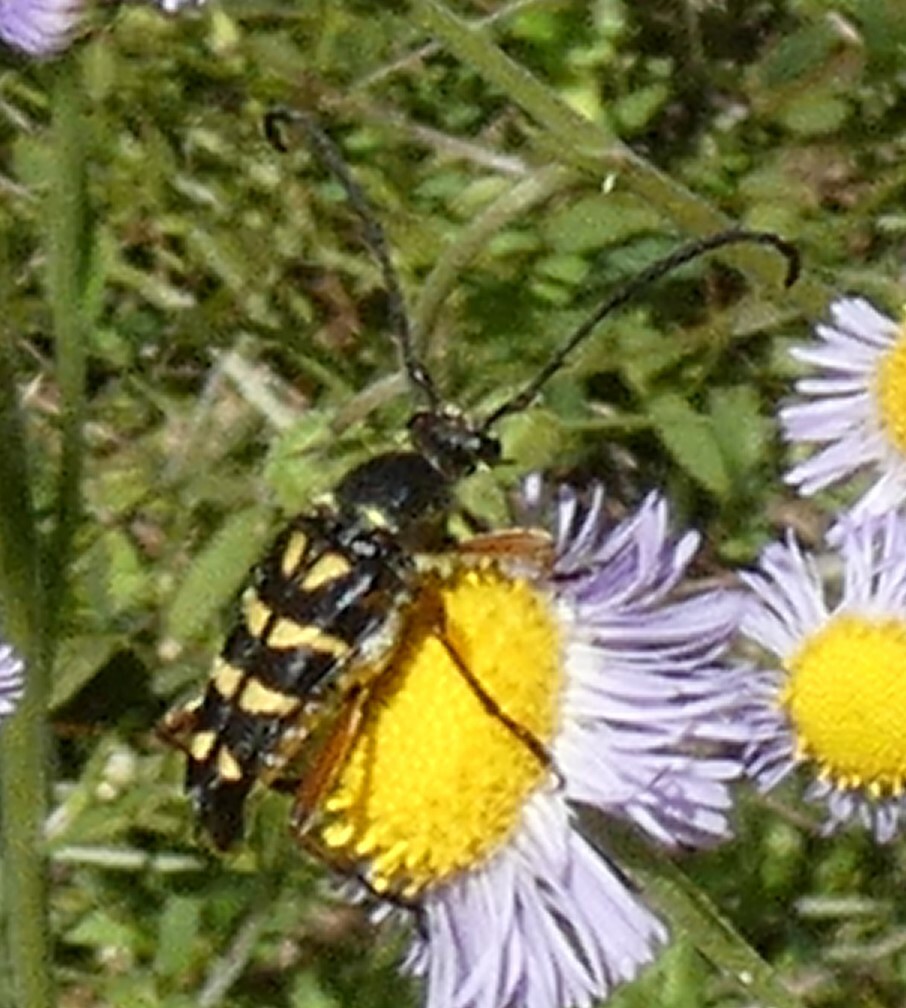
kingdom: Animalia
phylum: Arthropoda
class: Insecta
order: Coleoptera
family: Cerambycidae
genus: Typocerus
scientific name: Typocerus zebra
